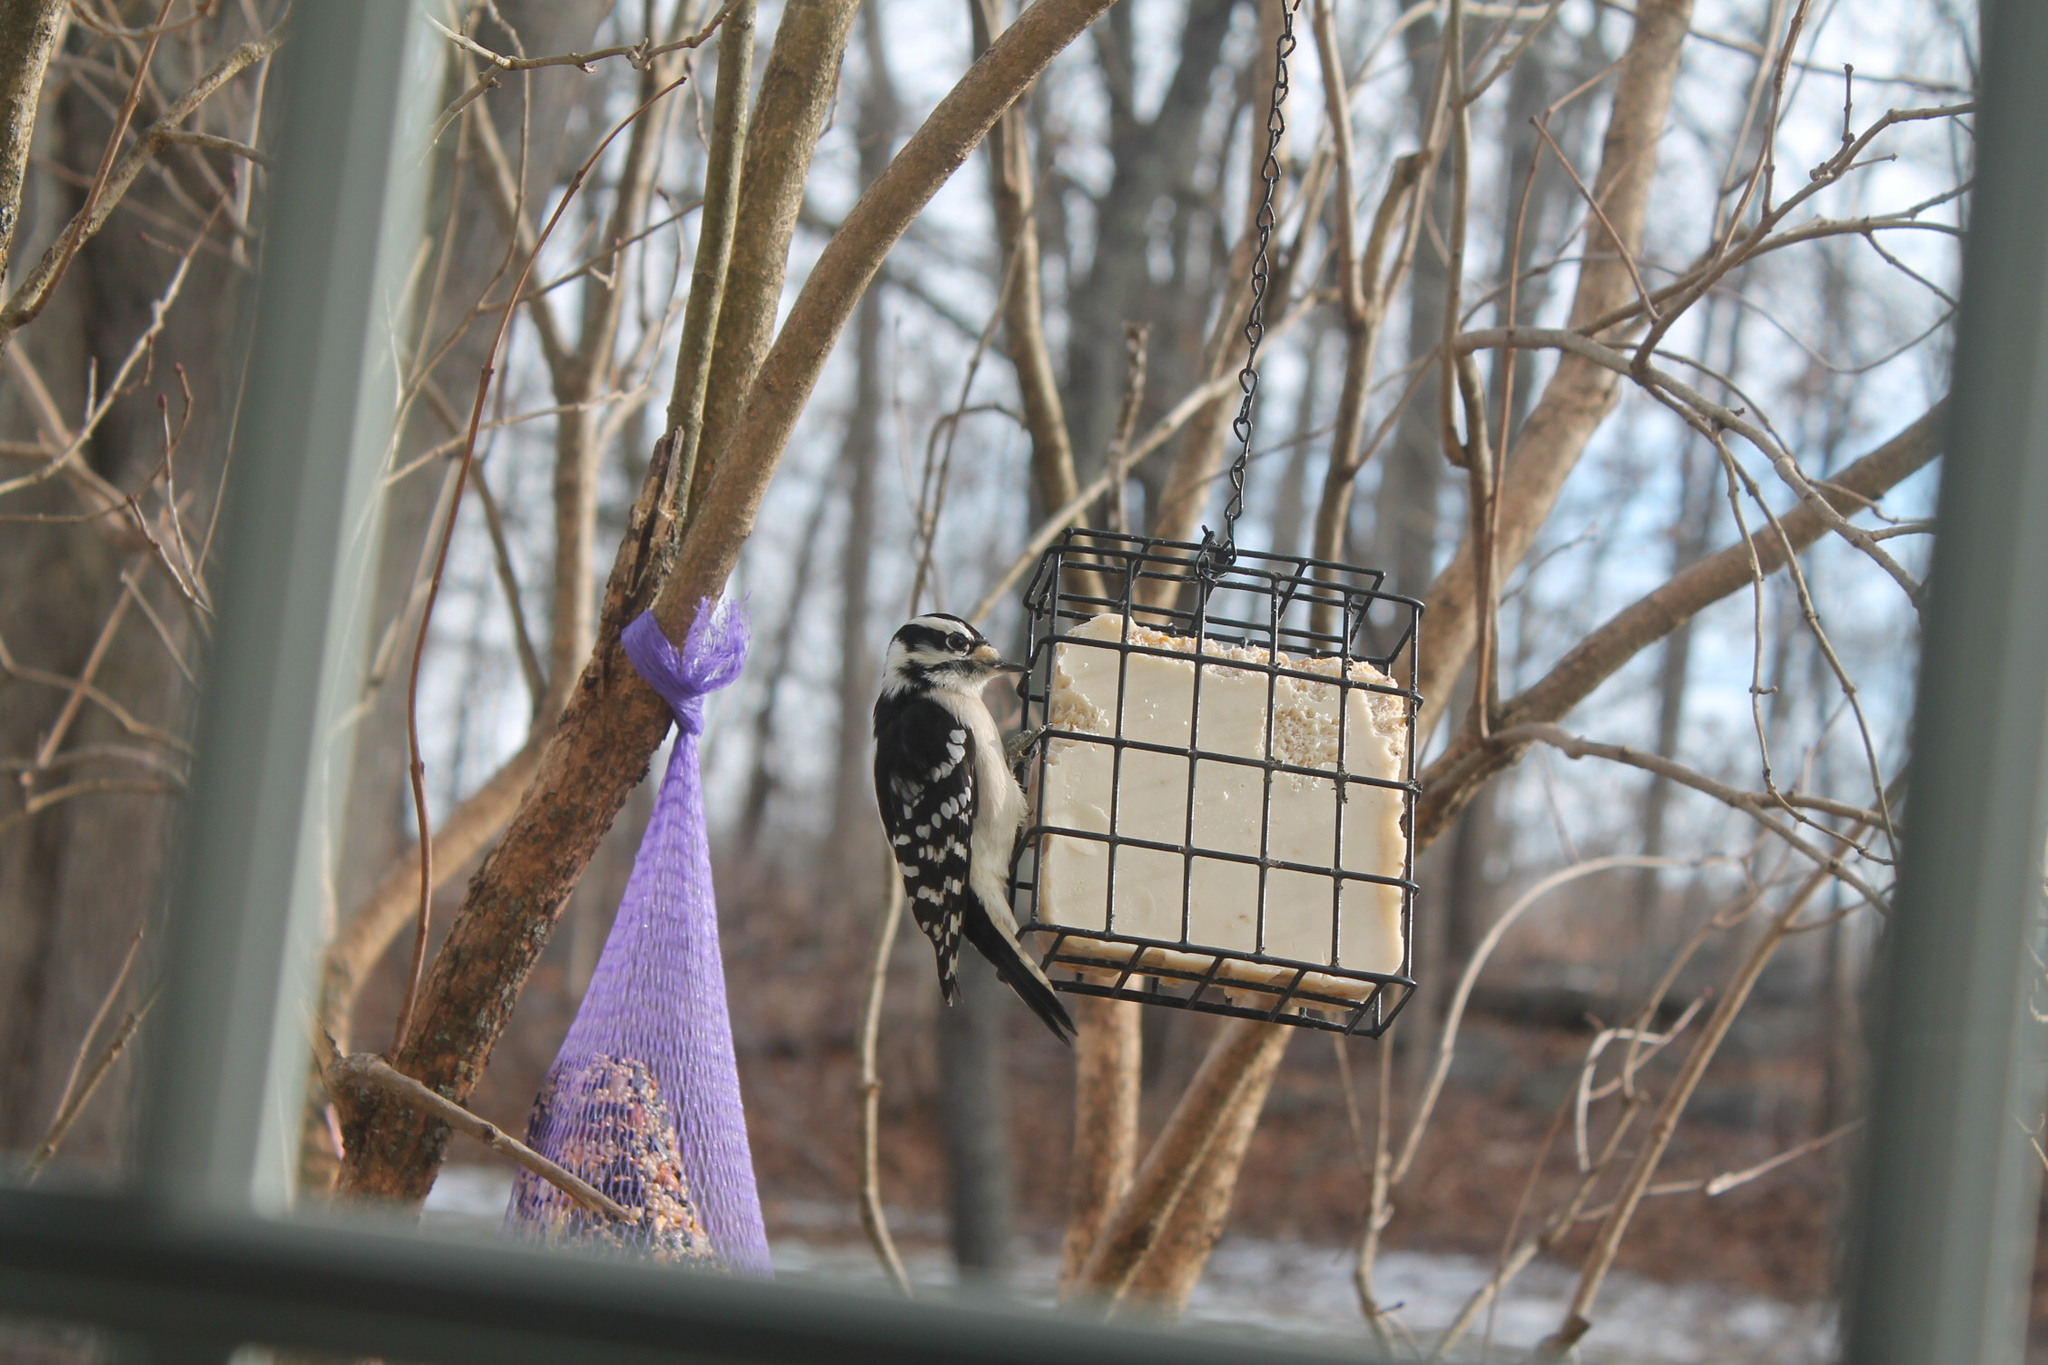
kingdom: Animalia
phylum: Chordata
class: Aves
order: Piciformes
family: Picidae
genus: Dryobates
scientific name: Dryobates pubescens
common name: Downy woodpecker
